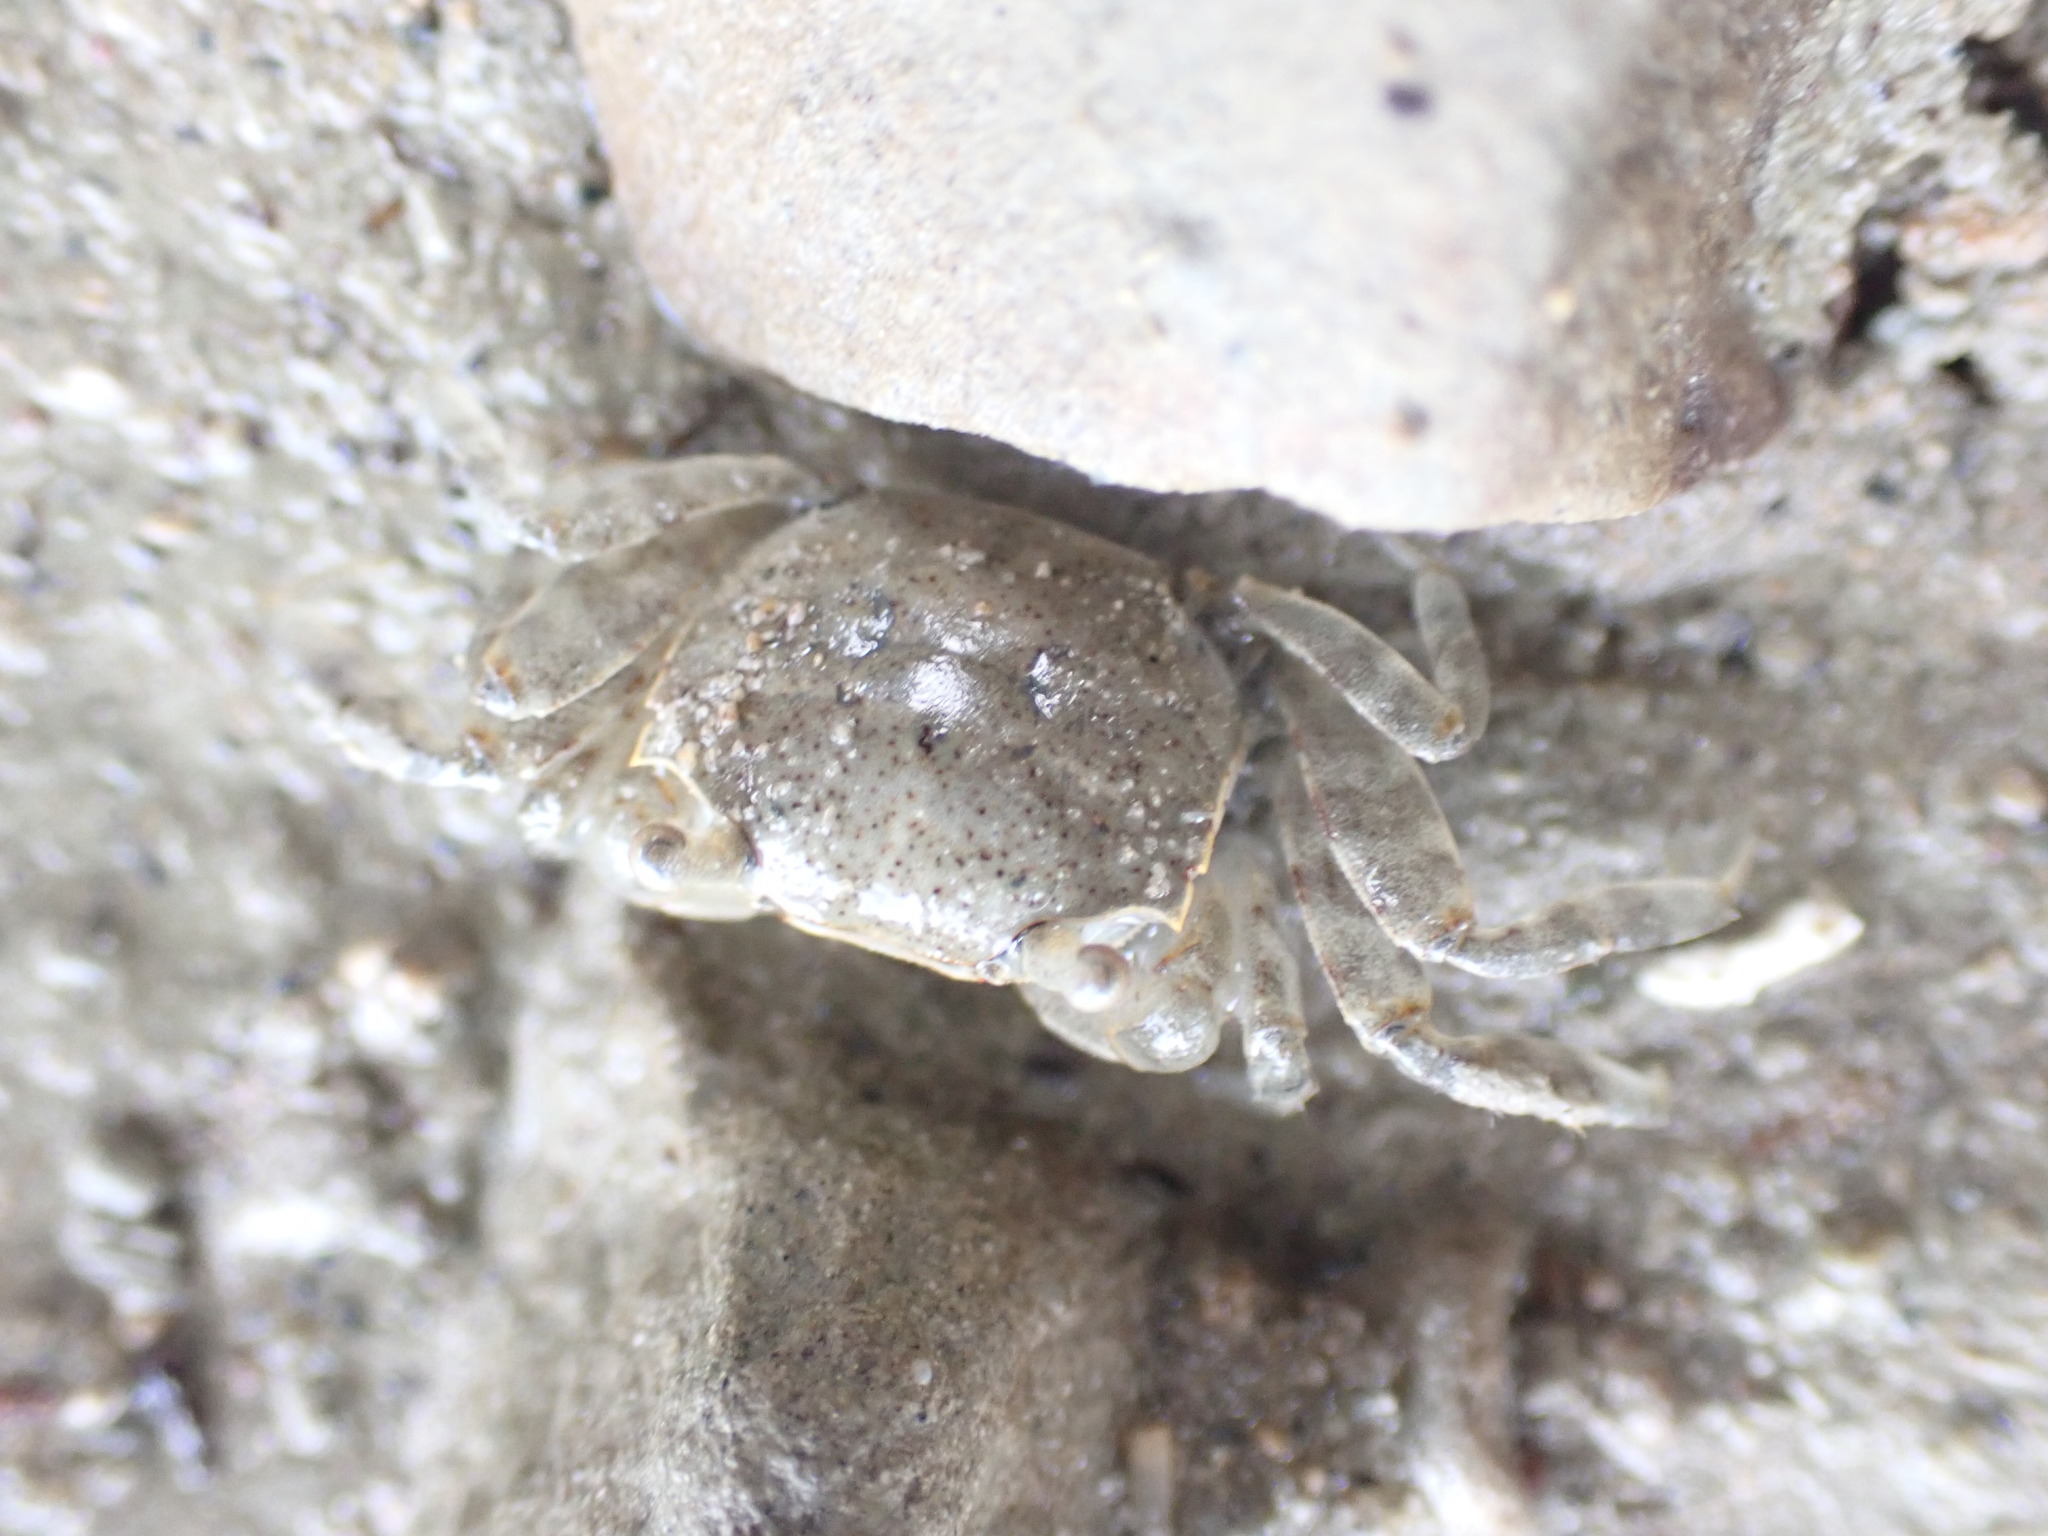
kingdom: Animalia
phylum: Arthropoda
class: Malacostraca
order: Decapoda
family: Varunidae
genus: Austrohelice
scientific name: Austrohelice crassa
